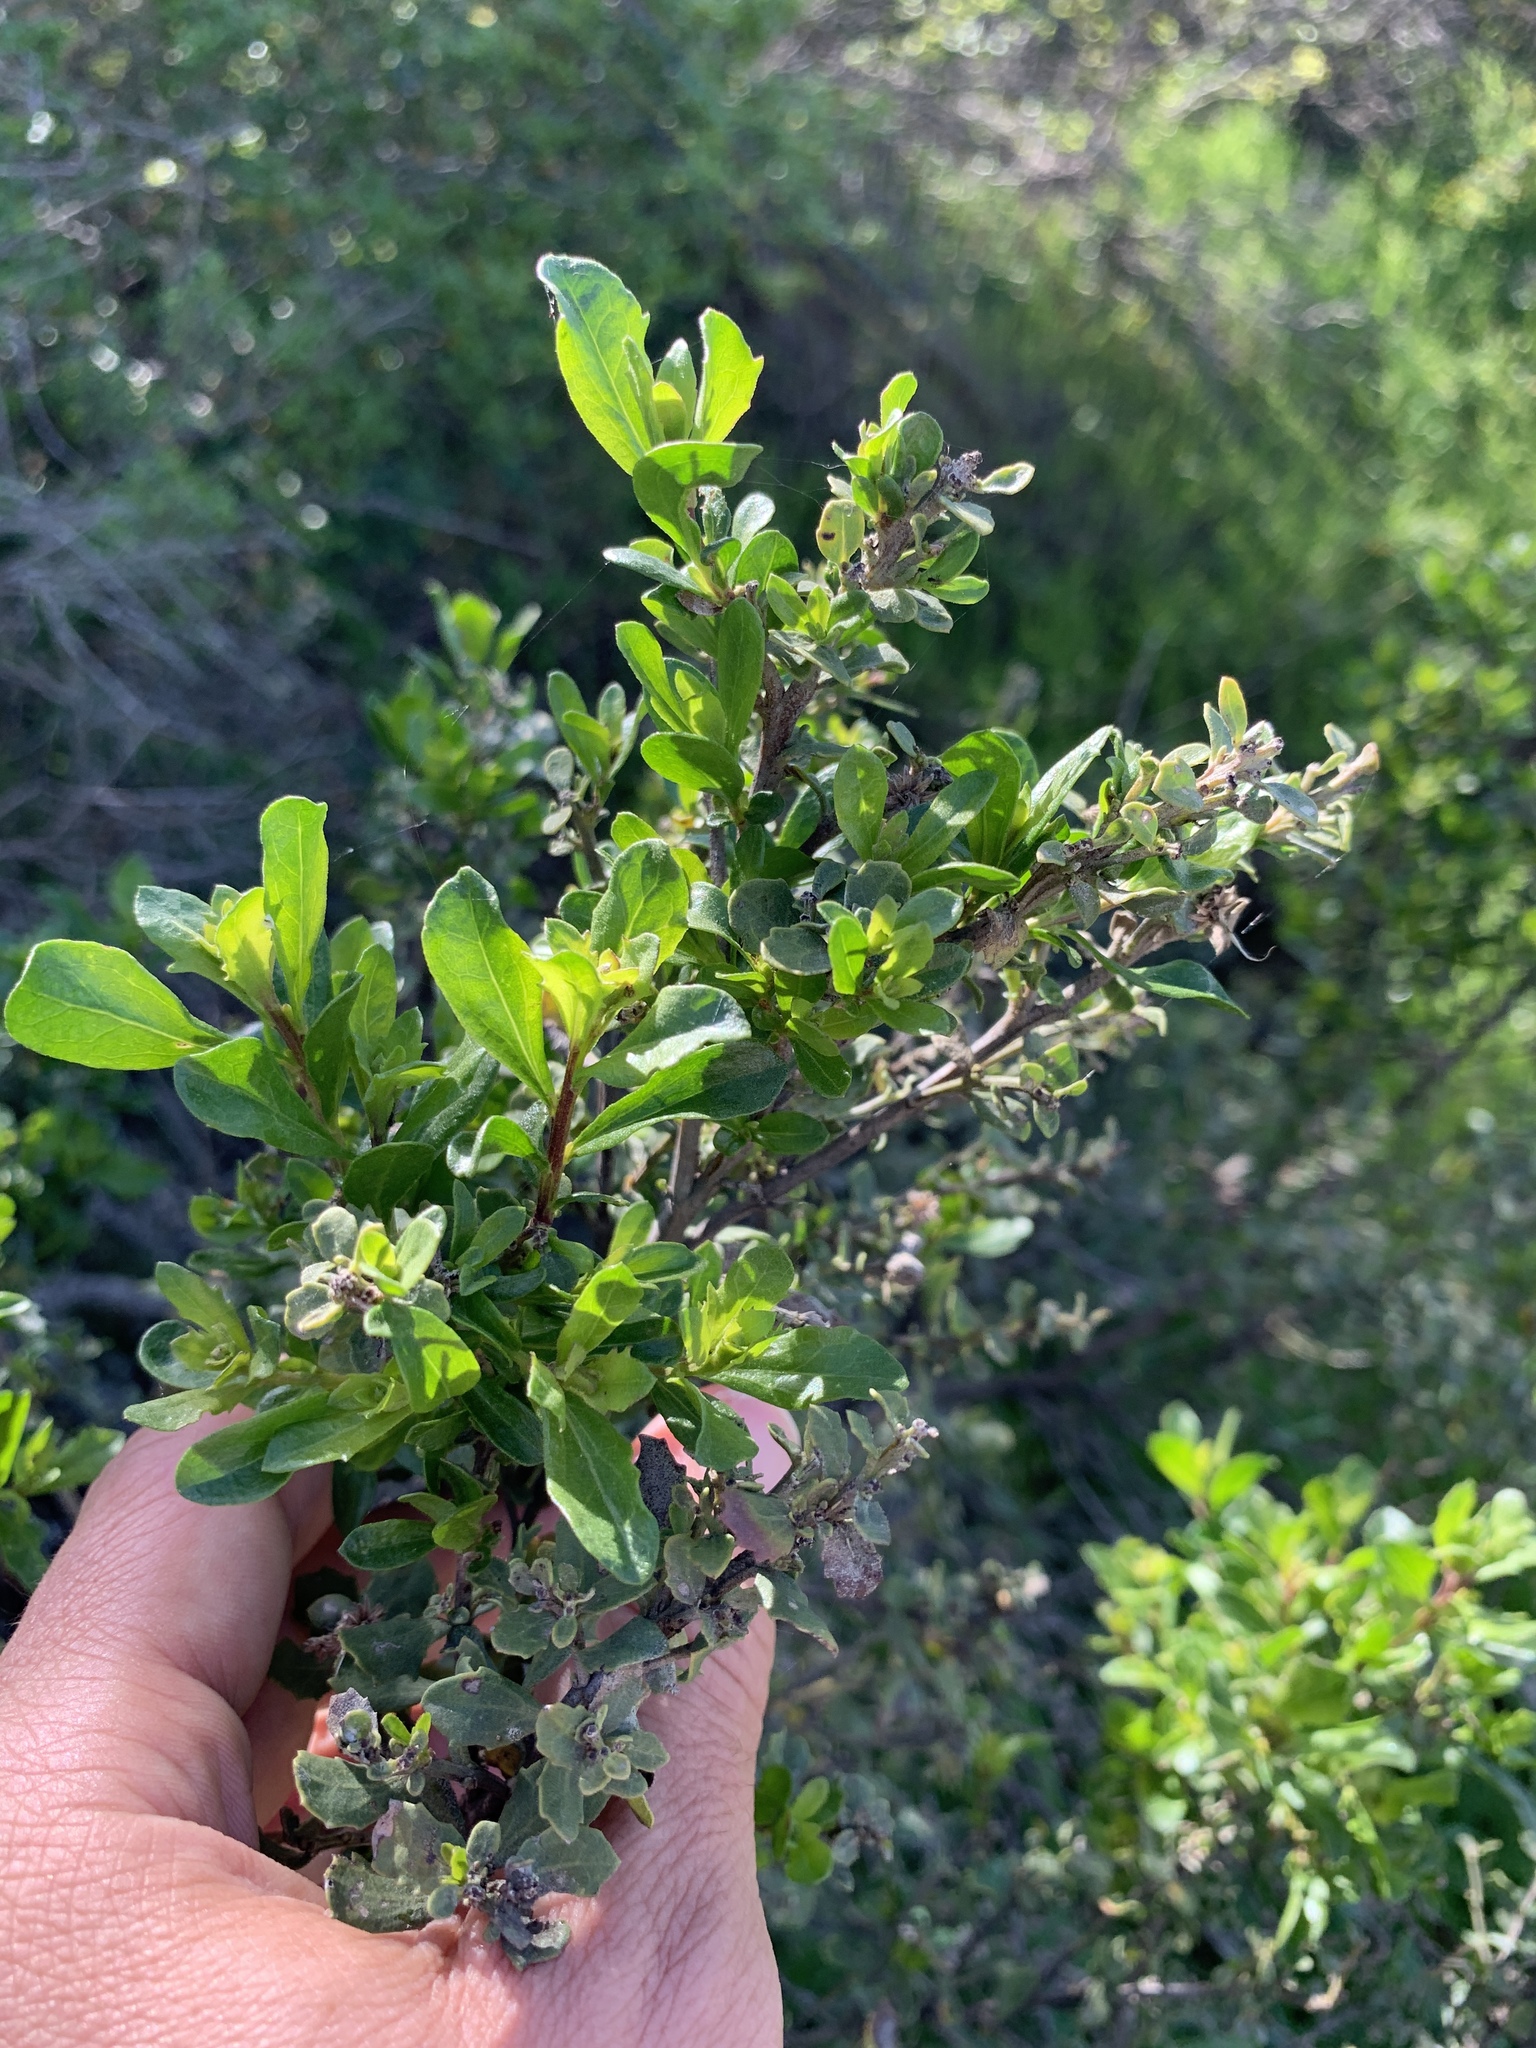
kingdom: Plantae
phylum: Tracheophyta
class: Magnoliopsida
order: Asterales
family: Asteraceae
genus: Baccharis
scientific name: Baccharis pilularis
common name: Coyotebrush
